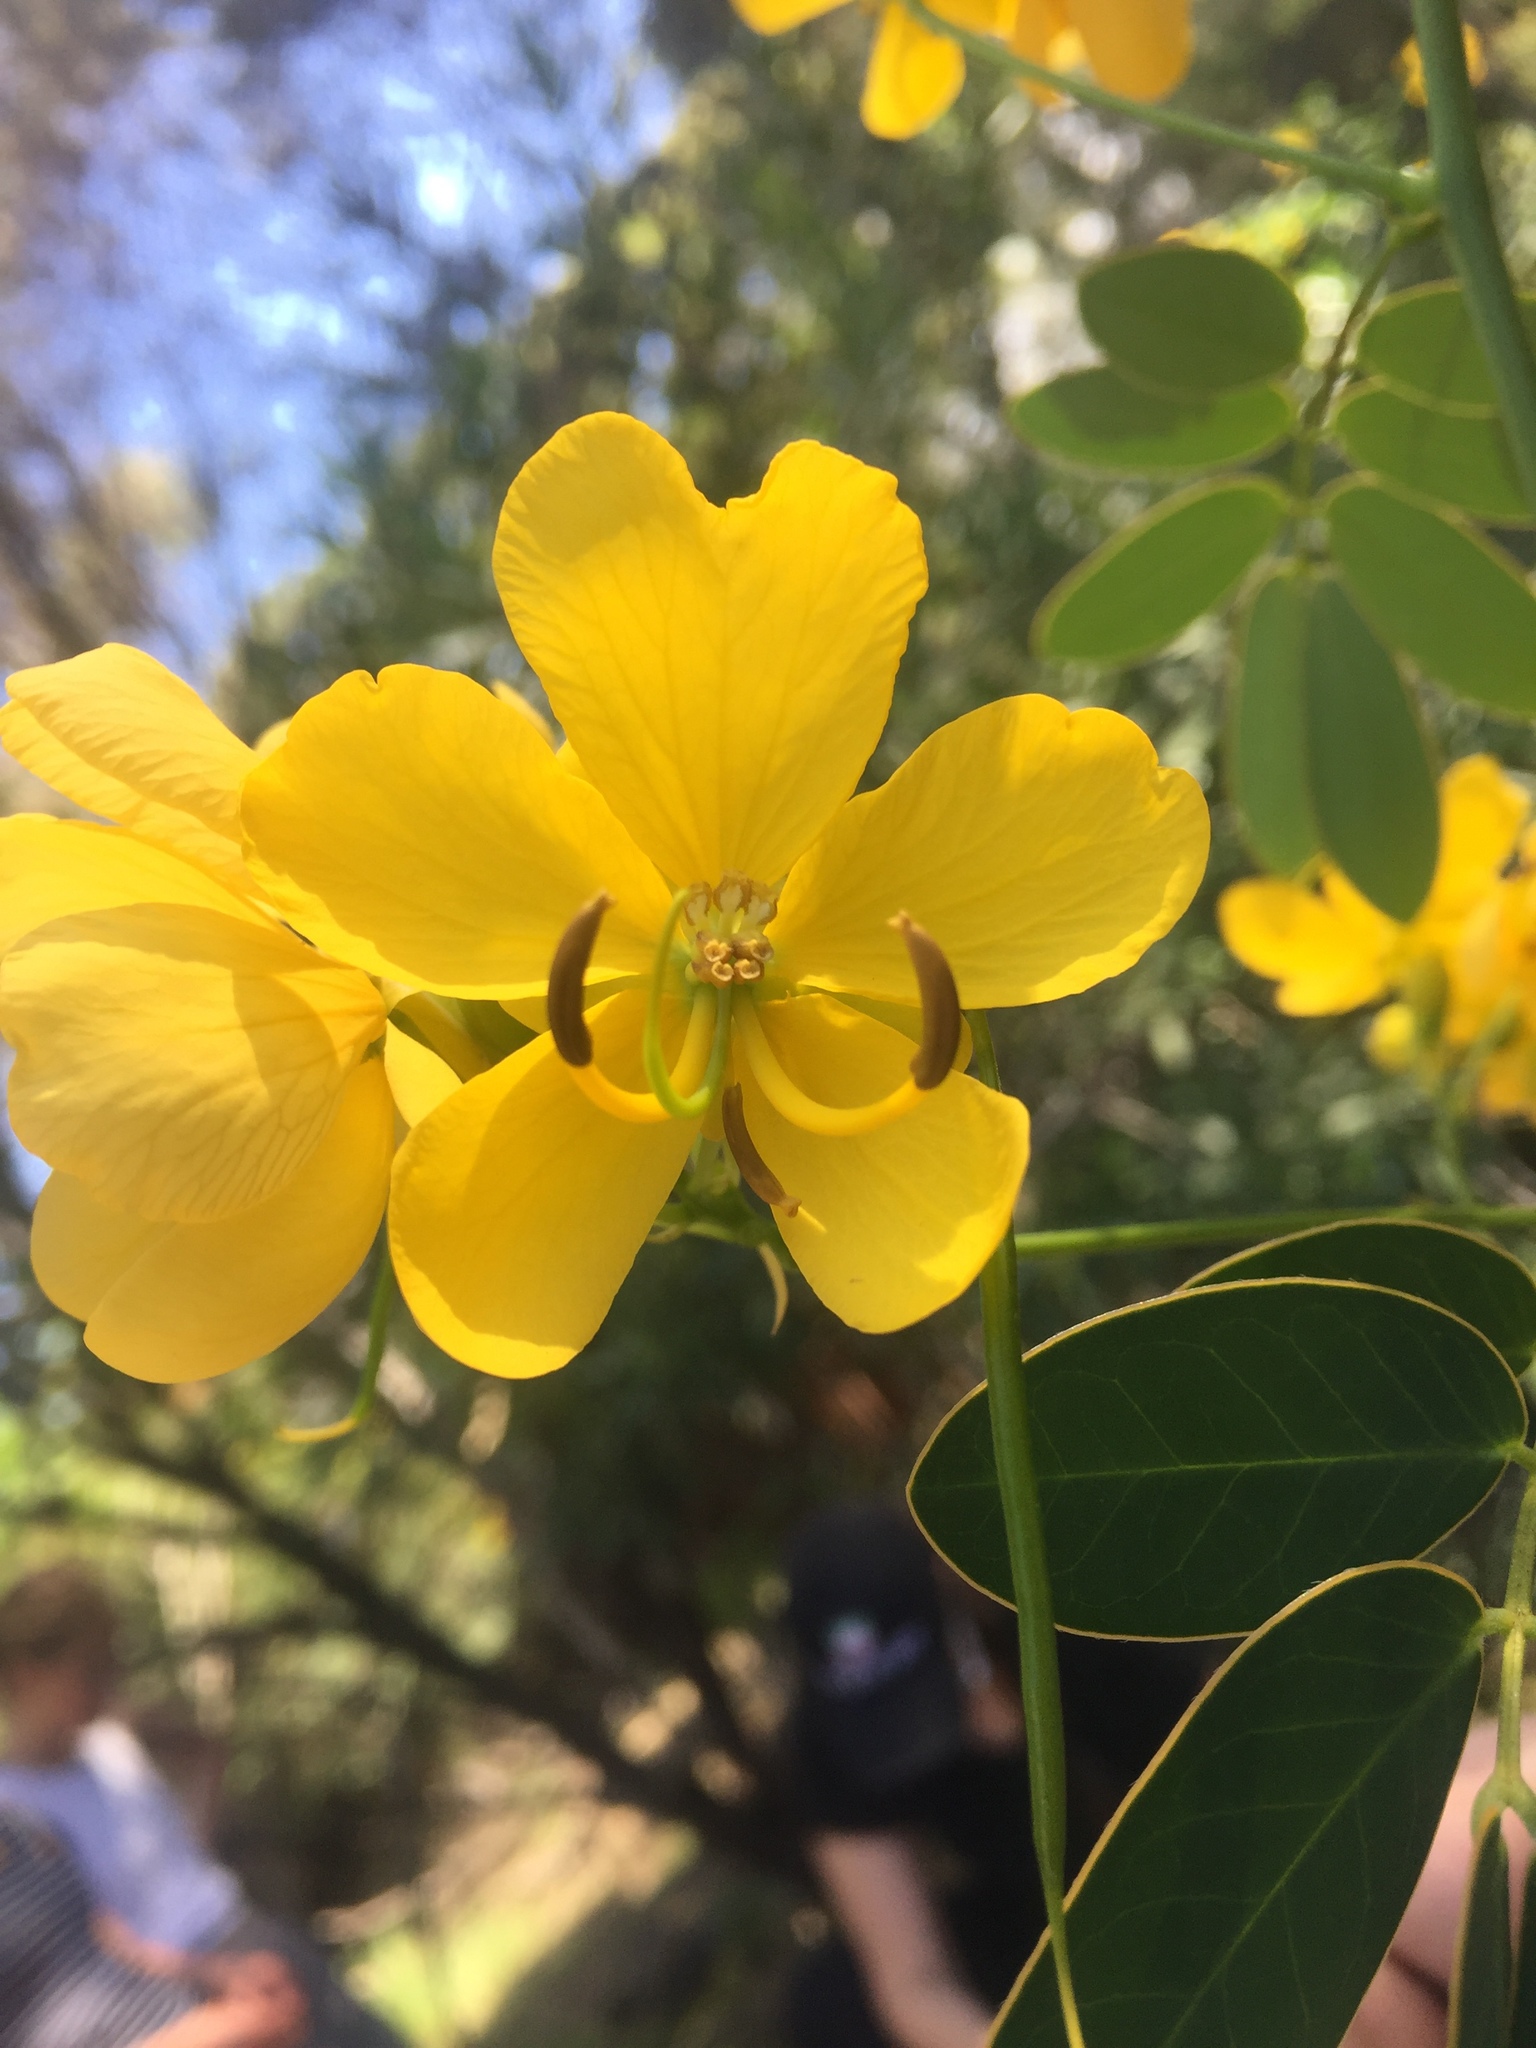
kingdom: Plantae
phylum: Tracheophyta
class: Magnoliopsida
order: Fabales
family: Fabaceae
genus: Senna
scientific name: Senna pendula
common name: Easter cassia
